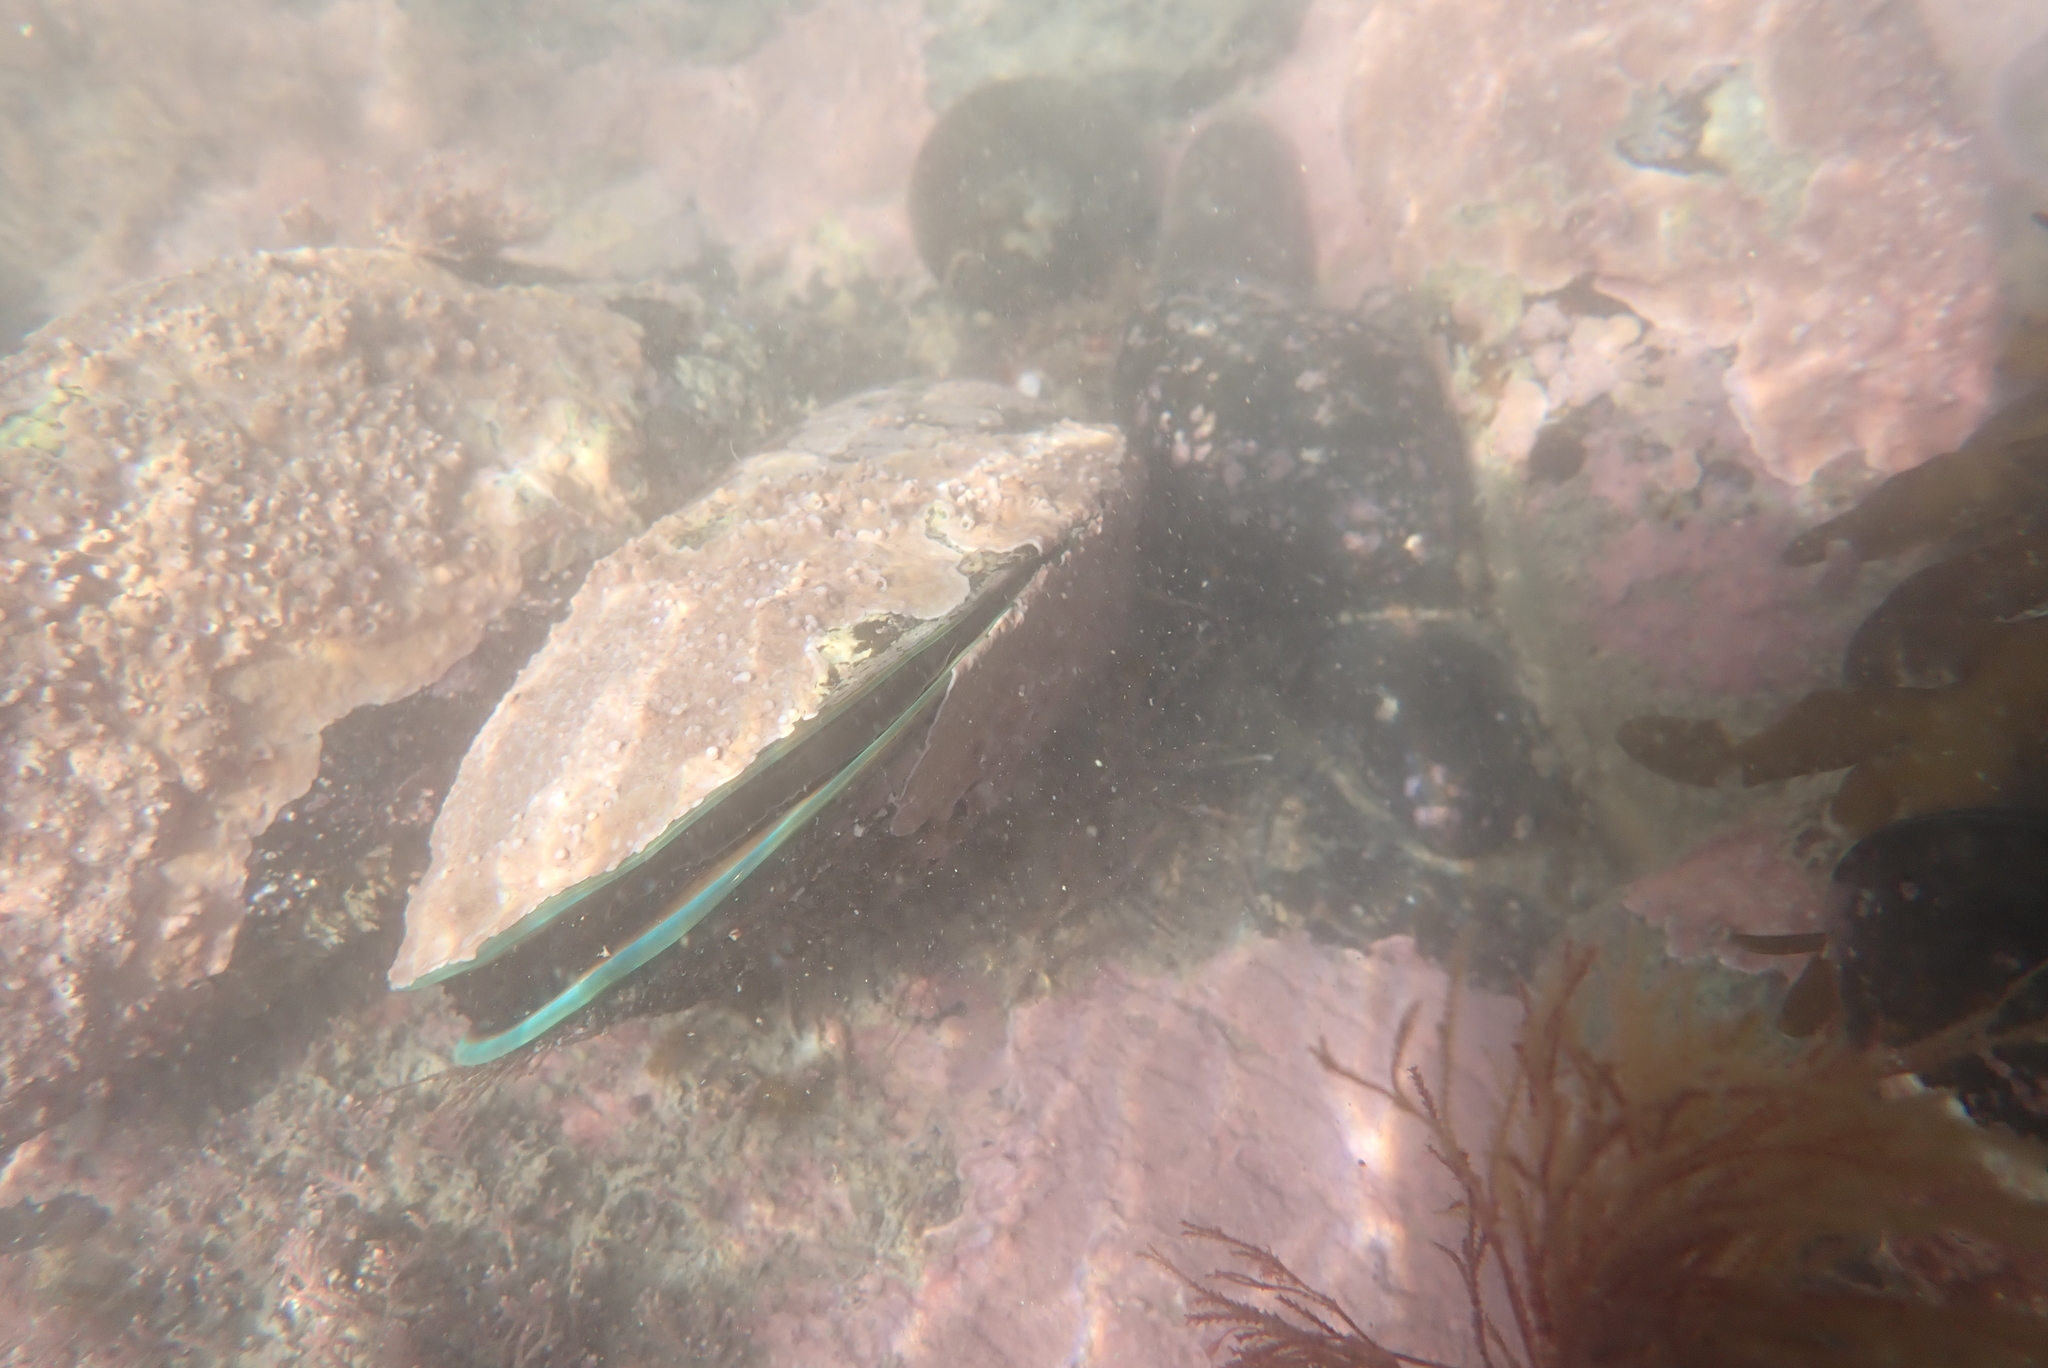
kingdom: Animalia
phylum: Mollusca
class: Bivalvia
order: Mytilida
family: Mytilidae
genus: Perna
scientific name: Perna canaliculus
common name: New zealand greenshelltm
